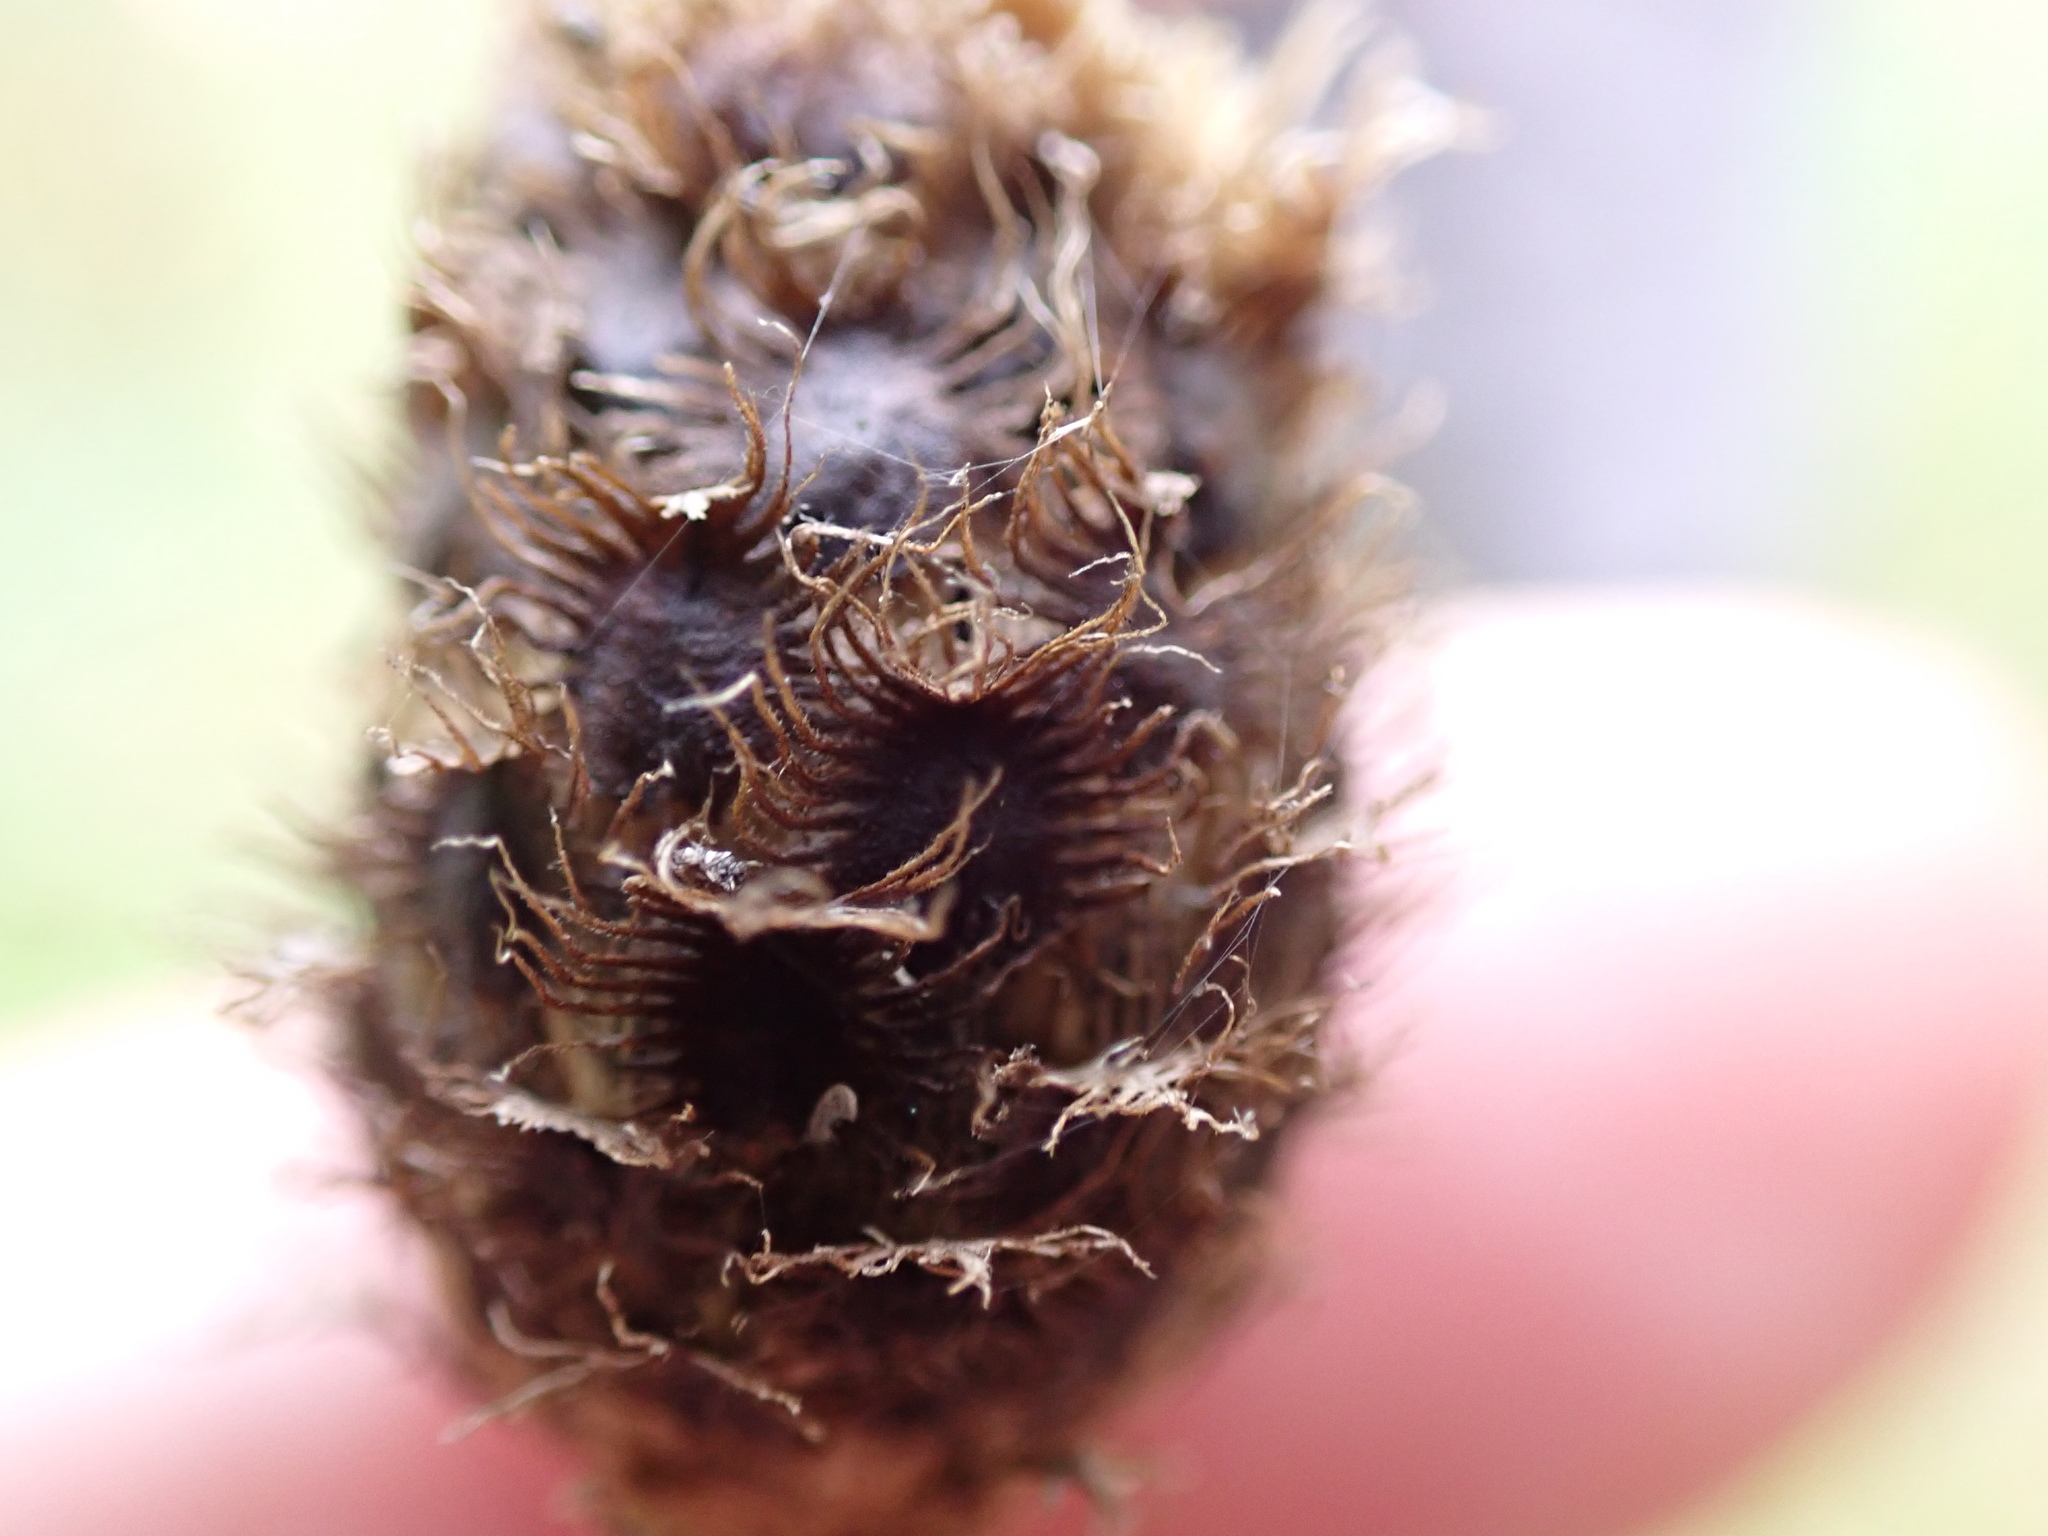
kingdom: Plantae
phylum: Tracheophyta
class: Magnoliopsida
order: Asterales
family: Asteraceae
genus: Centaurea
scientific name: Centaurea nigra
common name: Lesser knapweed
